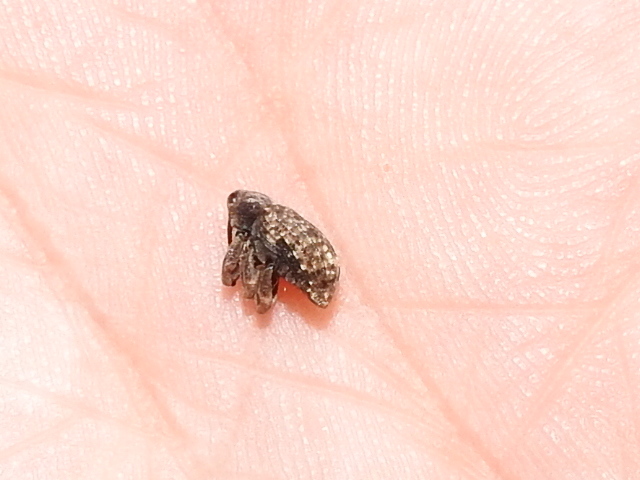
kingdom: Animalia
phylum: Arthropoda
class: Insecta
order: Coleoptera
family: Curculionidae
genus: Conotrachelus
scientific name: Conotrachelus naso
